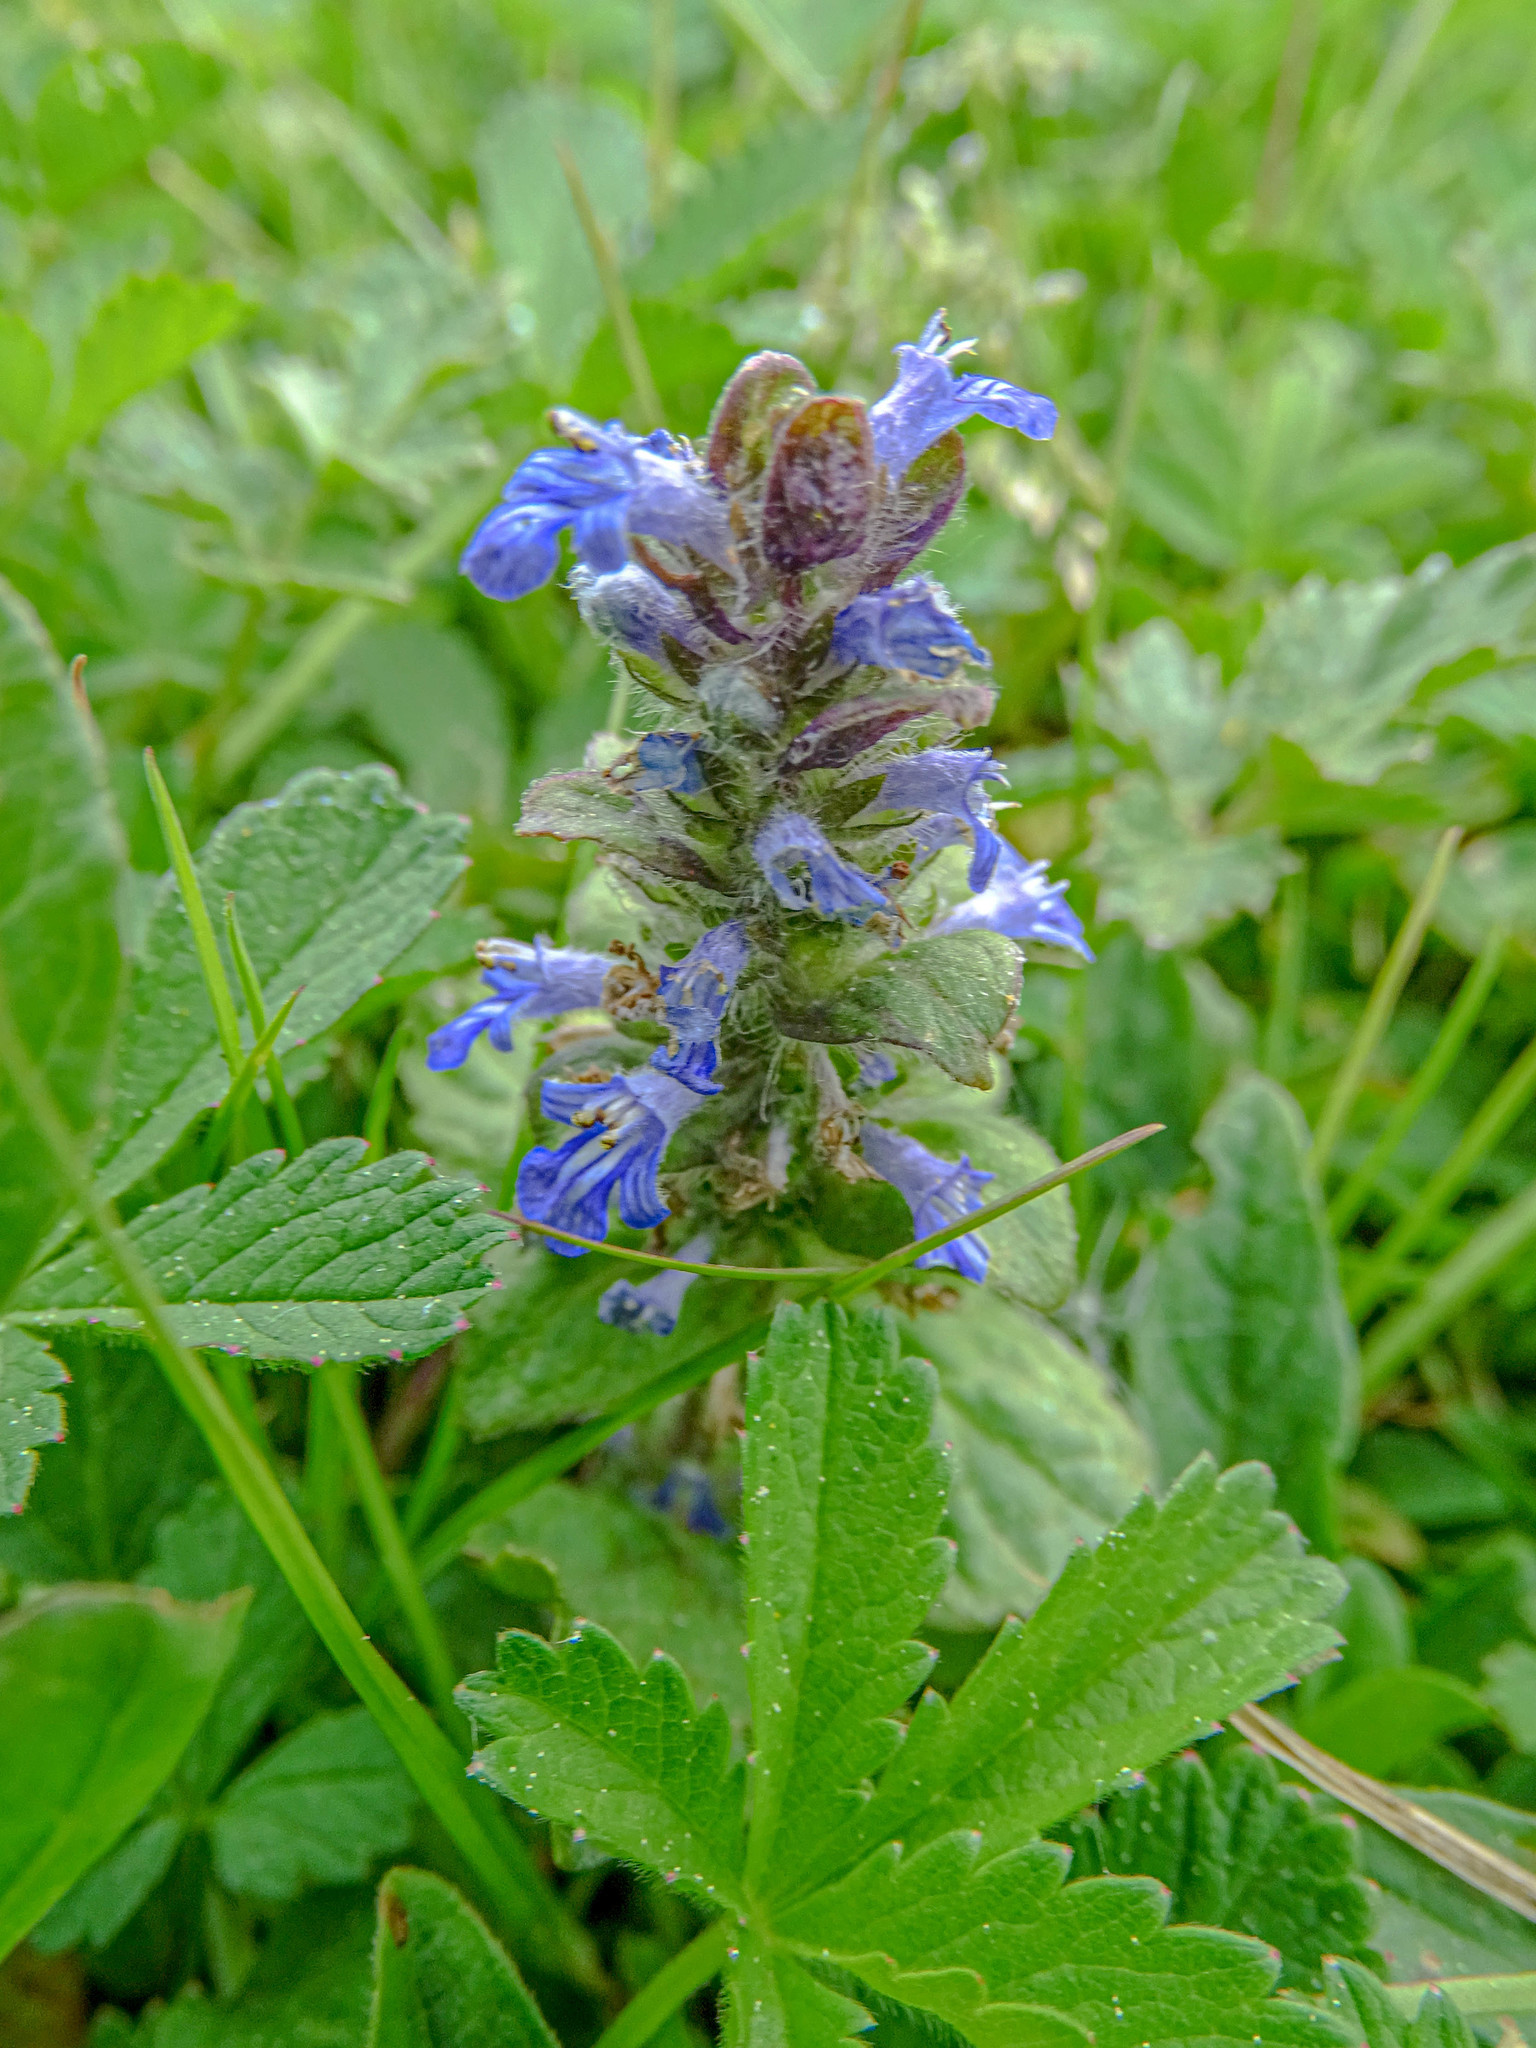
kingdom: Plantae
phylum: Tracheophyta
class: Magnoliopsida
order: Lamiales
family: Lamiaceae
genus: Ajuga
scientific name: Ajuga reptans
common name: Bugle
